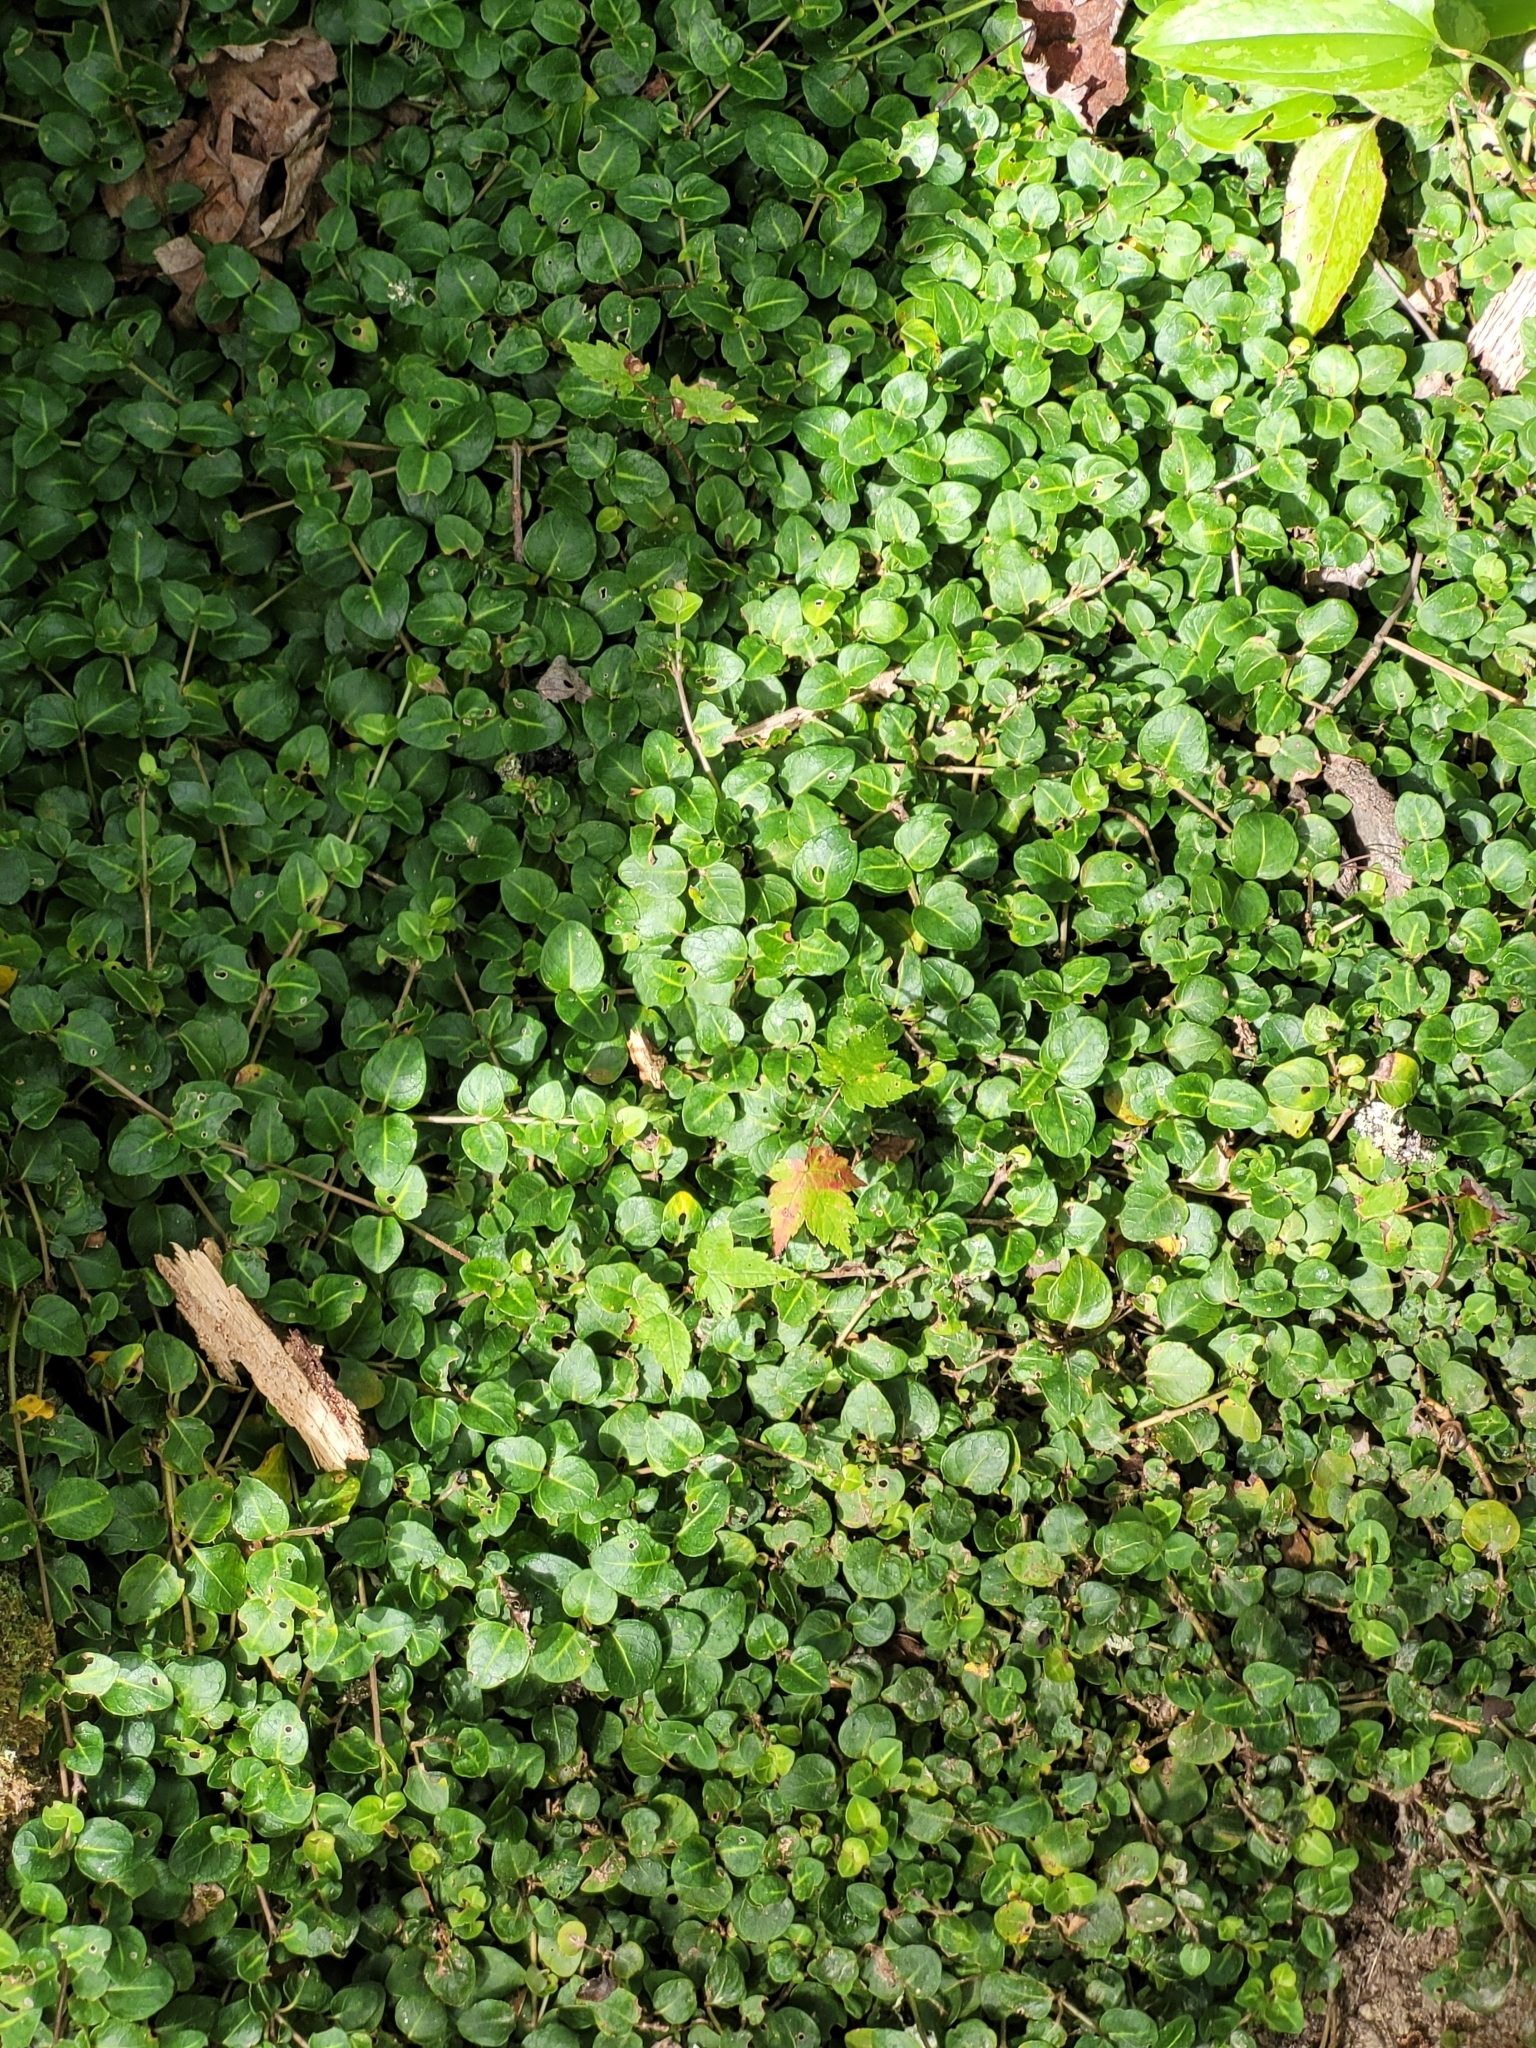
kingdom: Plantae
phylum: Tracheophyta
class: Magnoliopsida
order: Gentianales
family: Rubiaceae
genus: Mitchella
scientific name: Mitchella repens
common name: Partridge-berry
